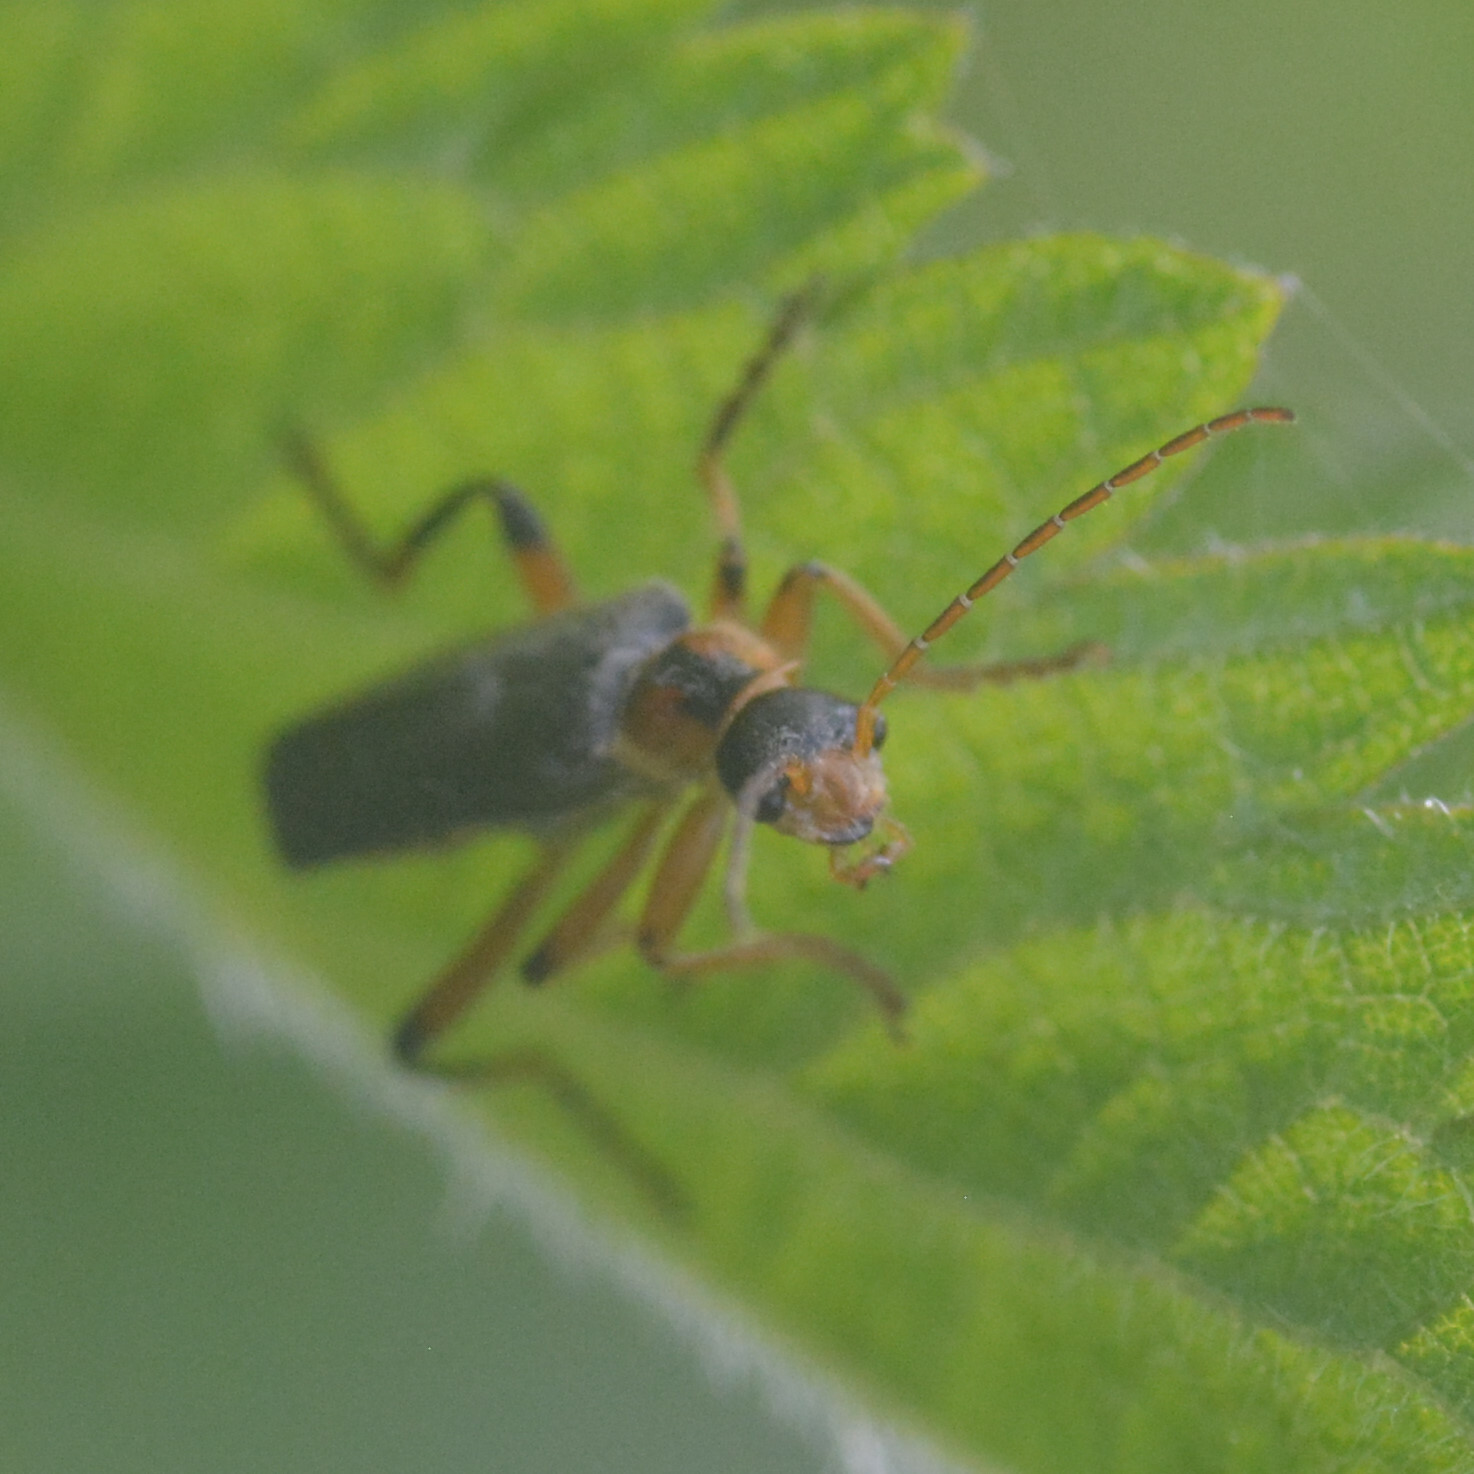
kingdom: Animalia
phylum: Arthropoda
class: Insecta
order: Coleoptera
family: Cantharidae
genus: Cantharis
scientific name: Cantharis nigricans
